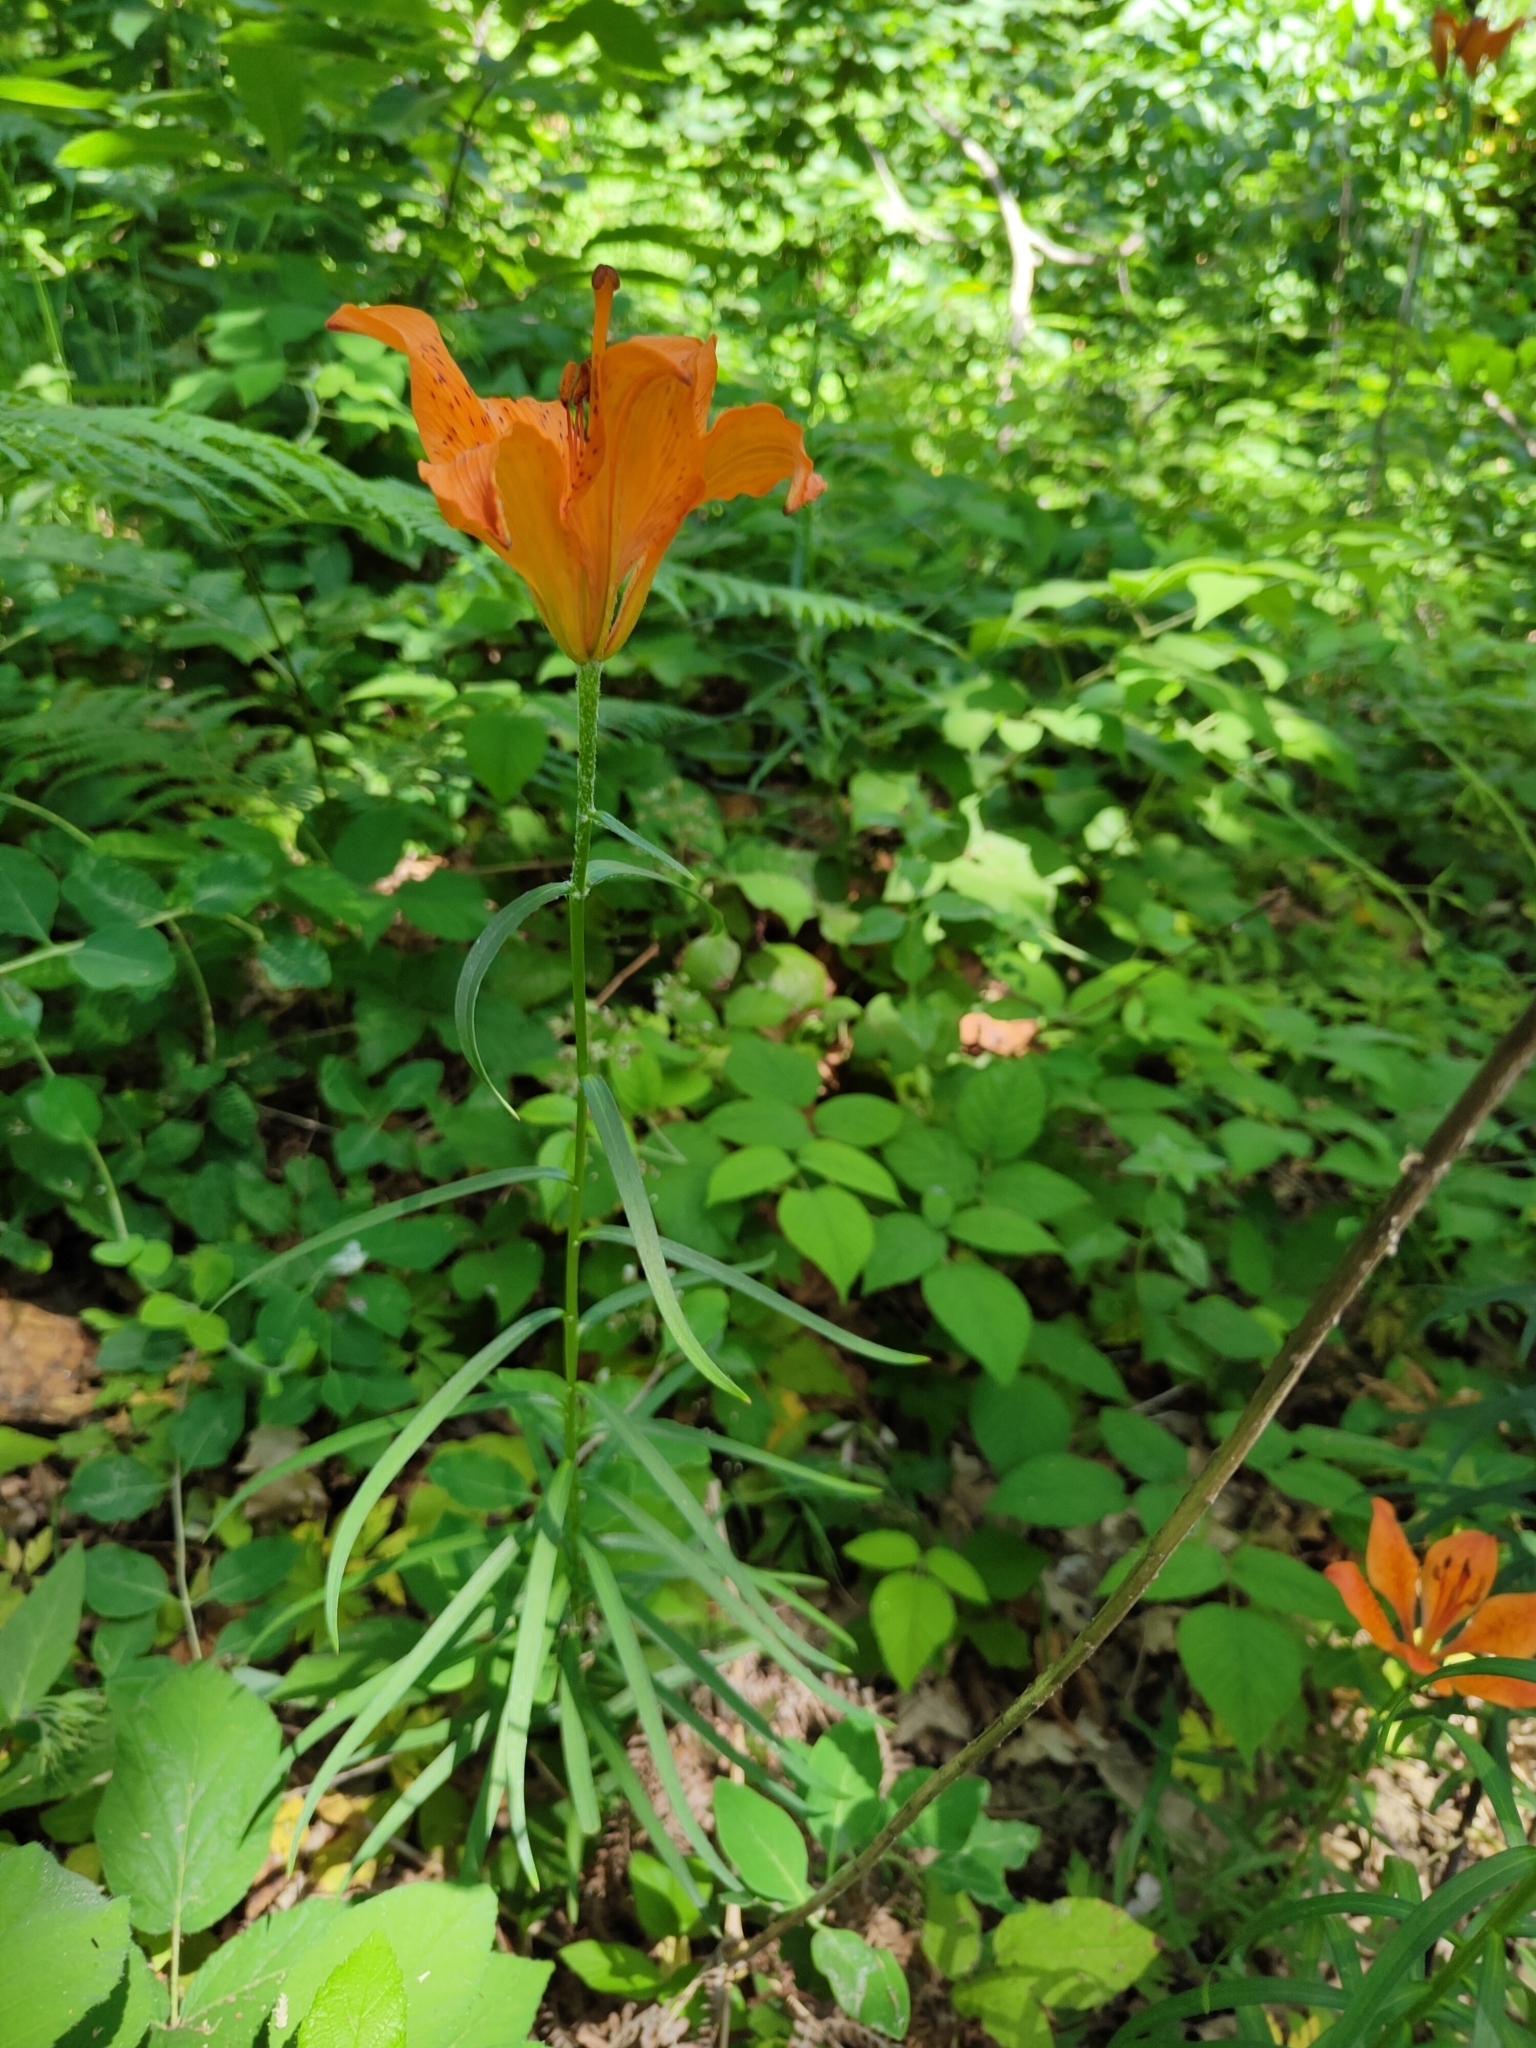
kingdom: Plantae
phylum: Tracheophyta
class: Liliopsida
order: Liliales
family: Liliaceae
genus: Lilium
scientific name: Lilium bulbiferum
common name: Orange lily
